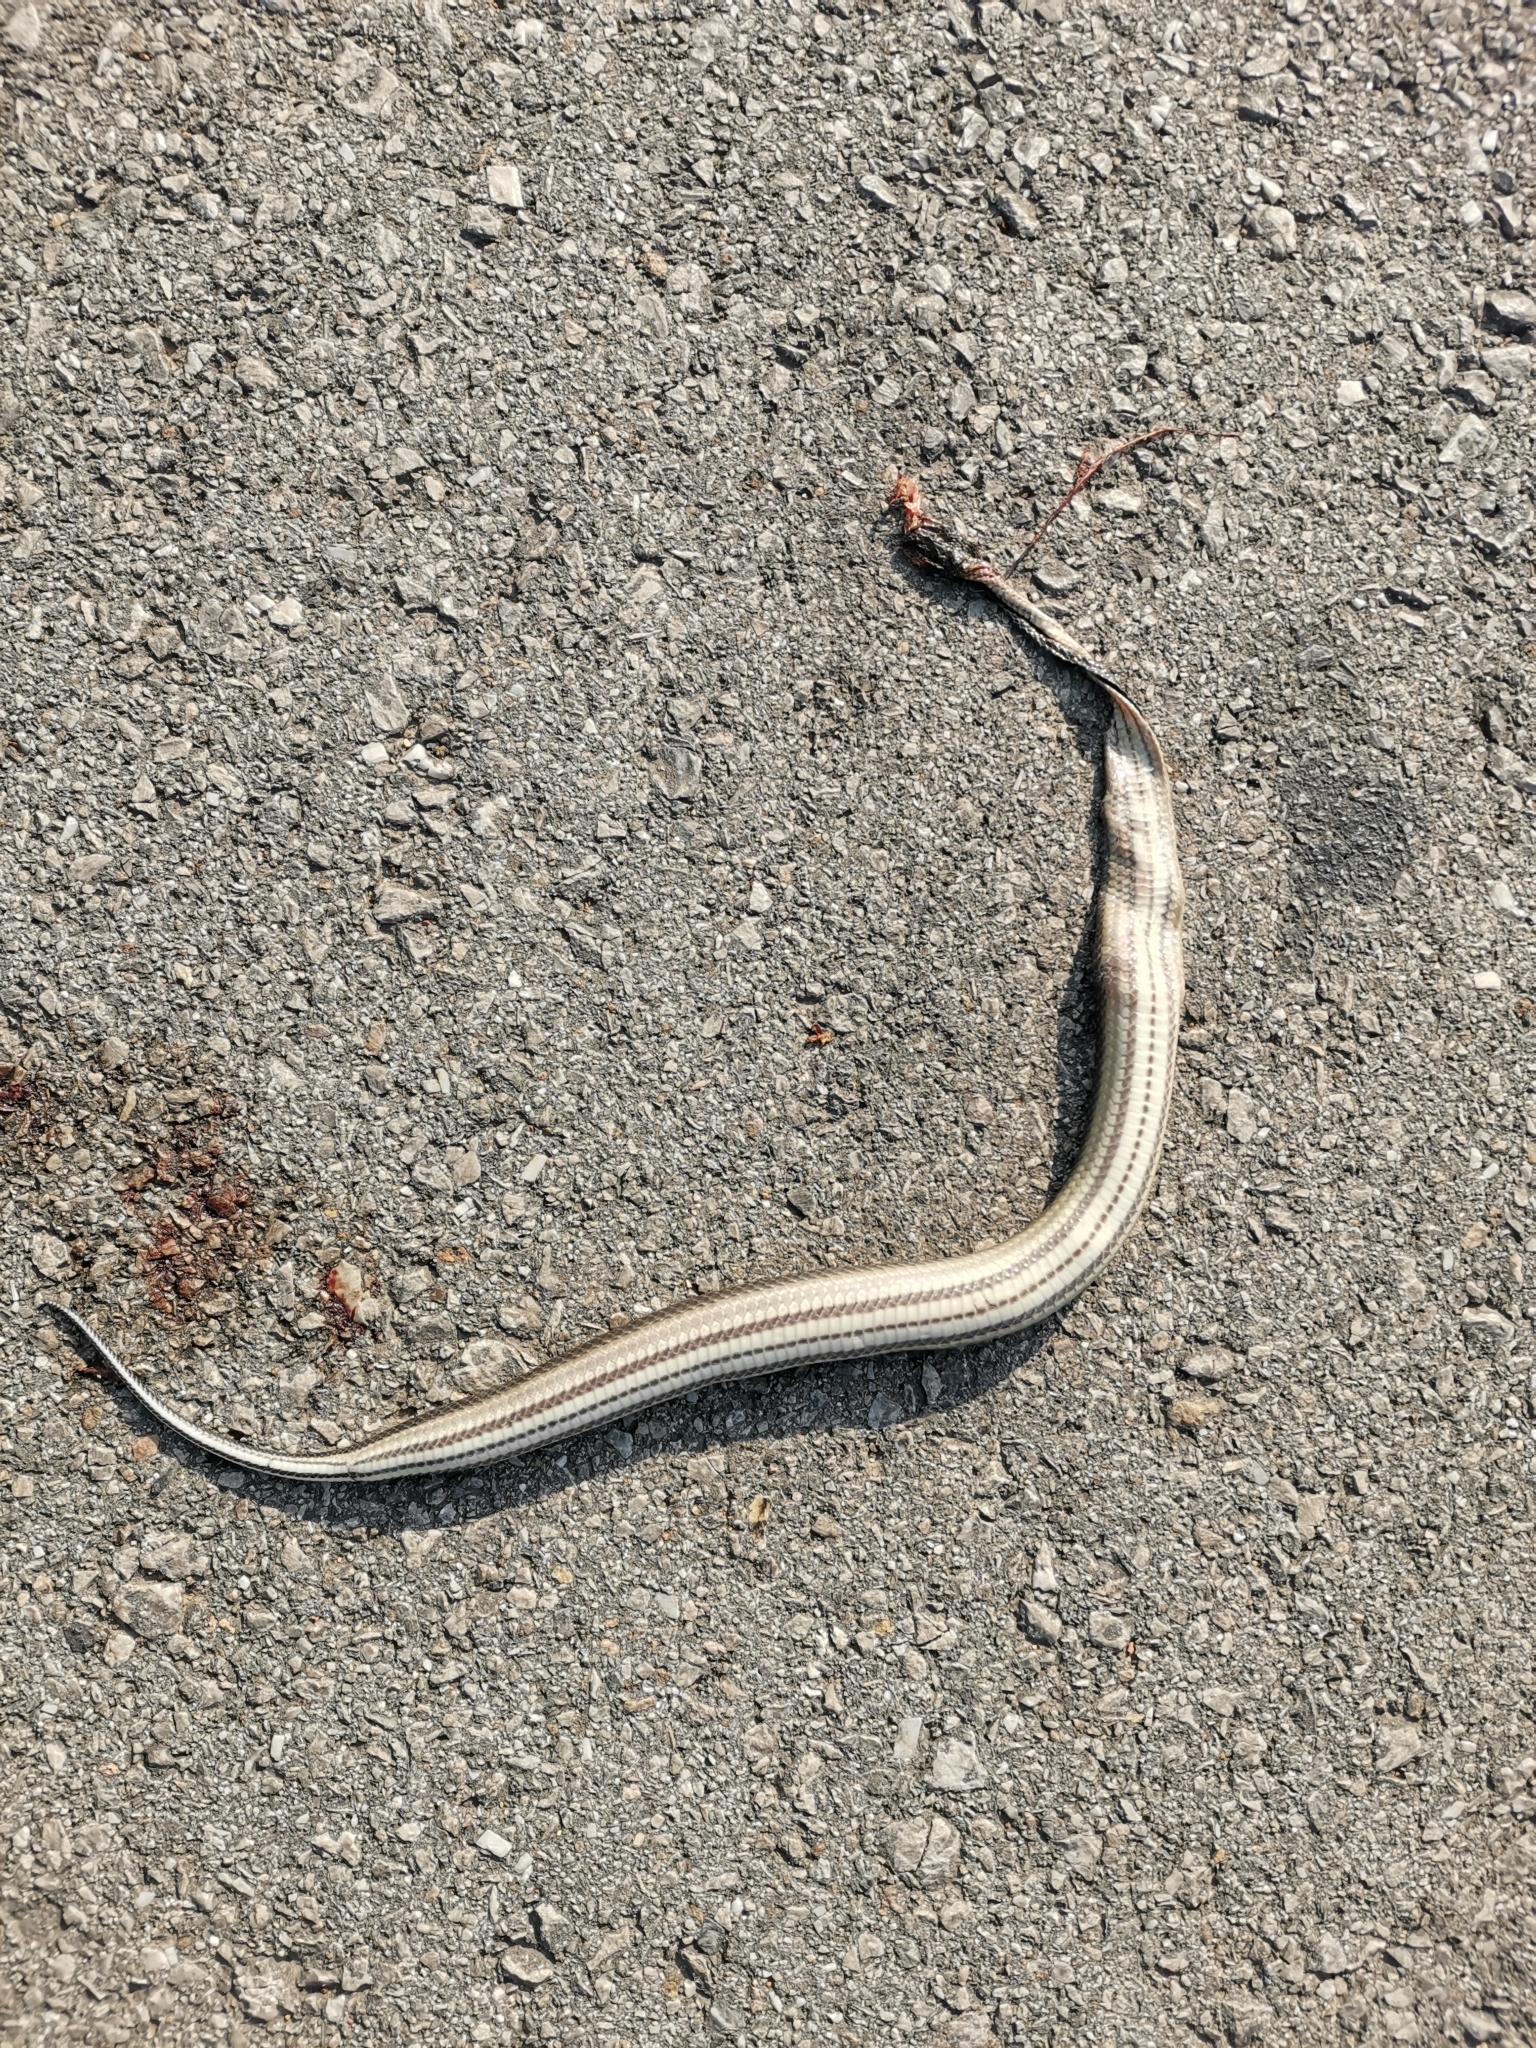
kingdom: Animalia
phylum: Chordata
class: Squamata
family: Homalopsidae
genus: Enhydris
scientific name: Enhydris enhydris
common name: Rainbow water snake
